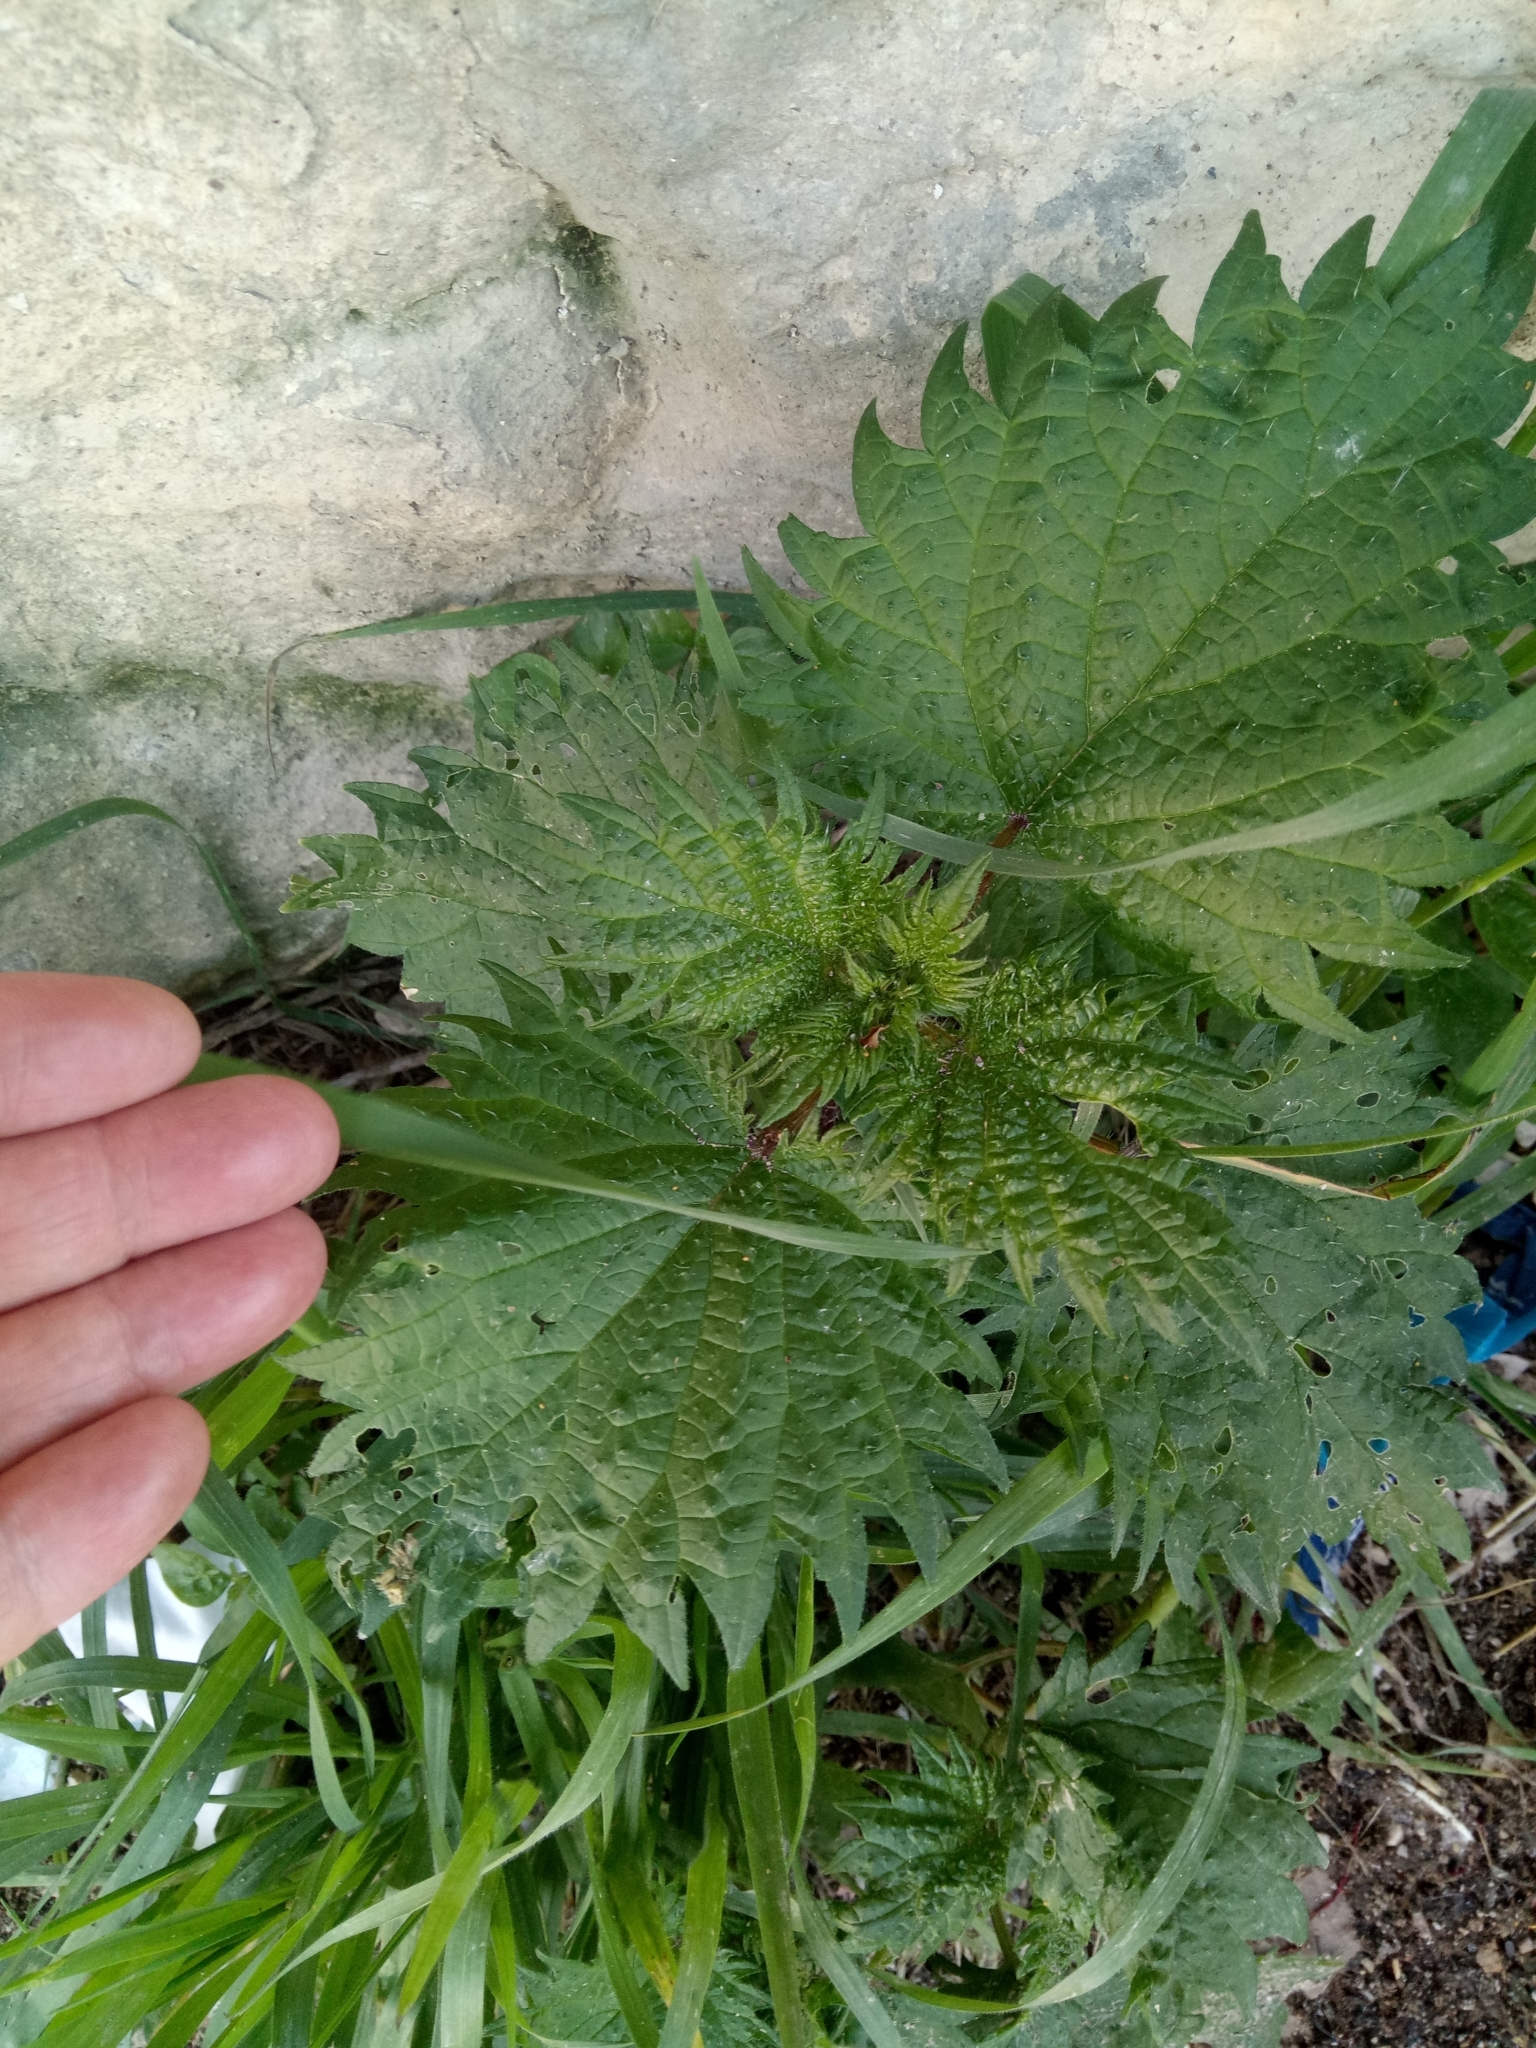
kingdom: Plantae
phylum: Tracheophyta
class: Magnoliopsida
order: Rosales
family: Urticaceae
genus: Urtica
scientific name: Urtica pilulifera
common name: Roman nettle
